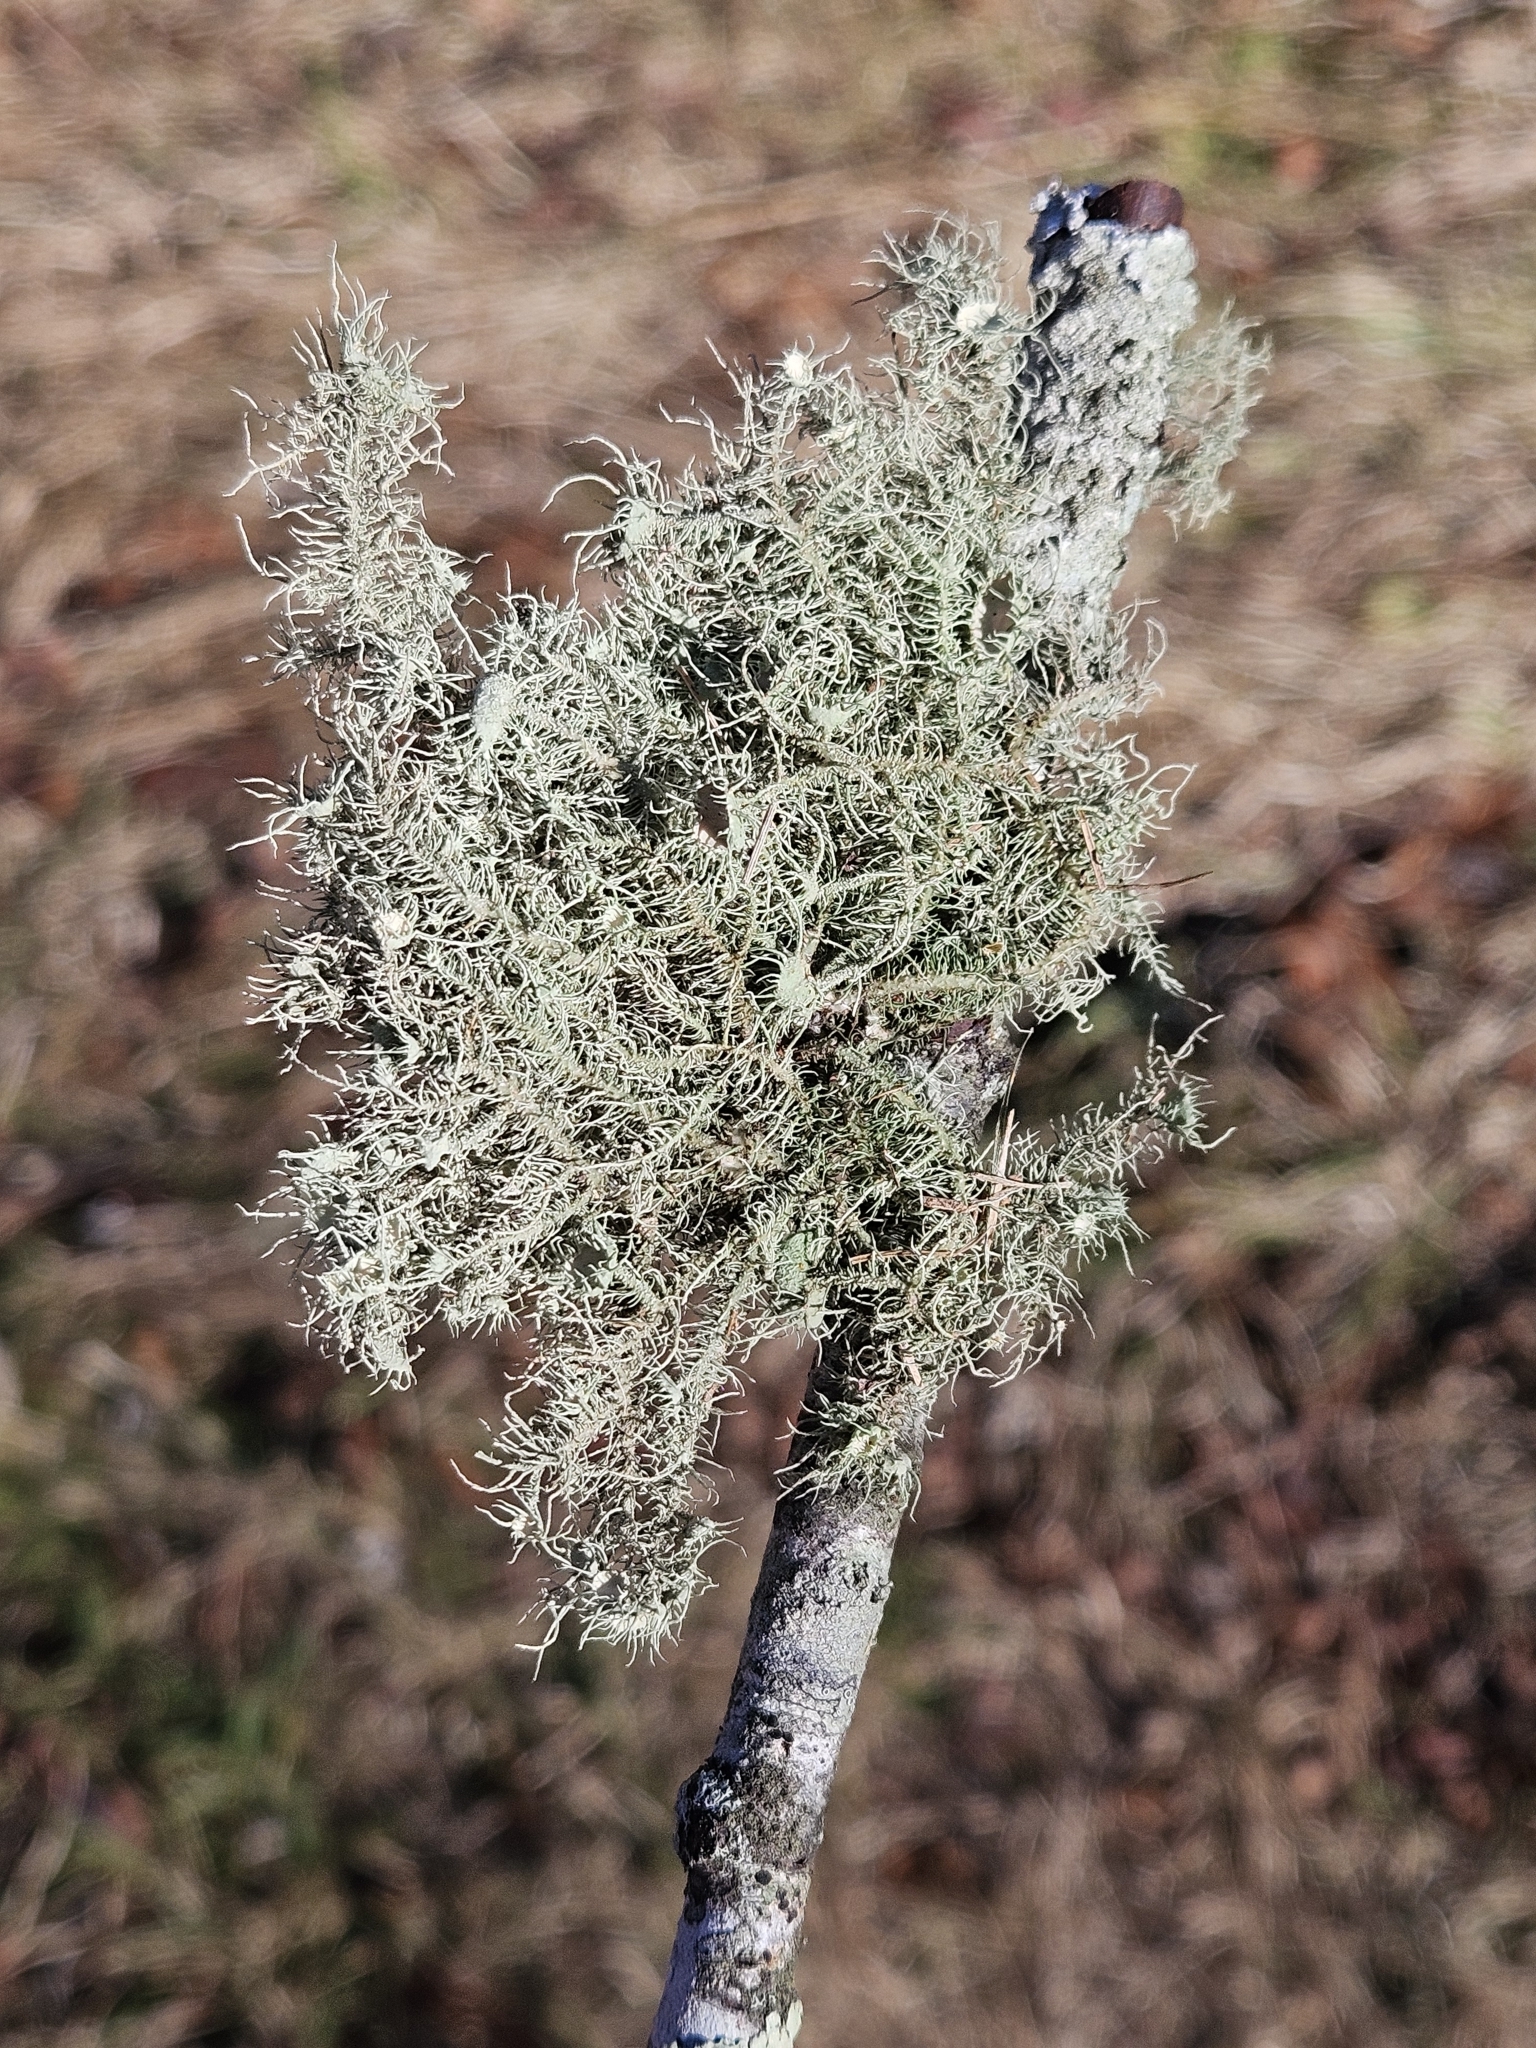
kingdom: Fungi
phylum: Ascomycota
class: Lecanoromycetes
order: Lecanorales
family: Parmeliaceae
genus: Usnea
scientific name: Usnea strigosa
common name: Bushy beard lichen
